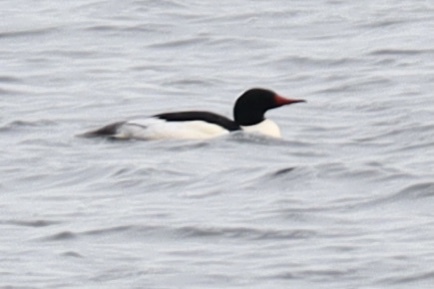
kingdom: Animalia
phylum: Chordata
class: Aves
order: Anseriformes
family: Anatidae
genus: Mergus
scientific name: Mergus merganser
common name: Common merganser
